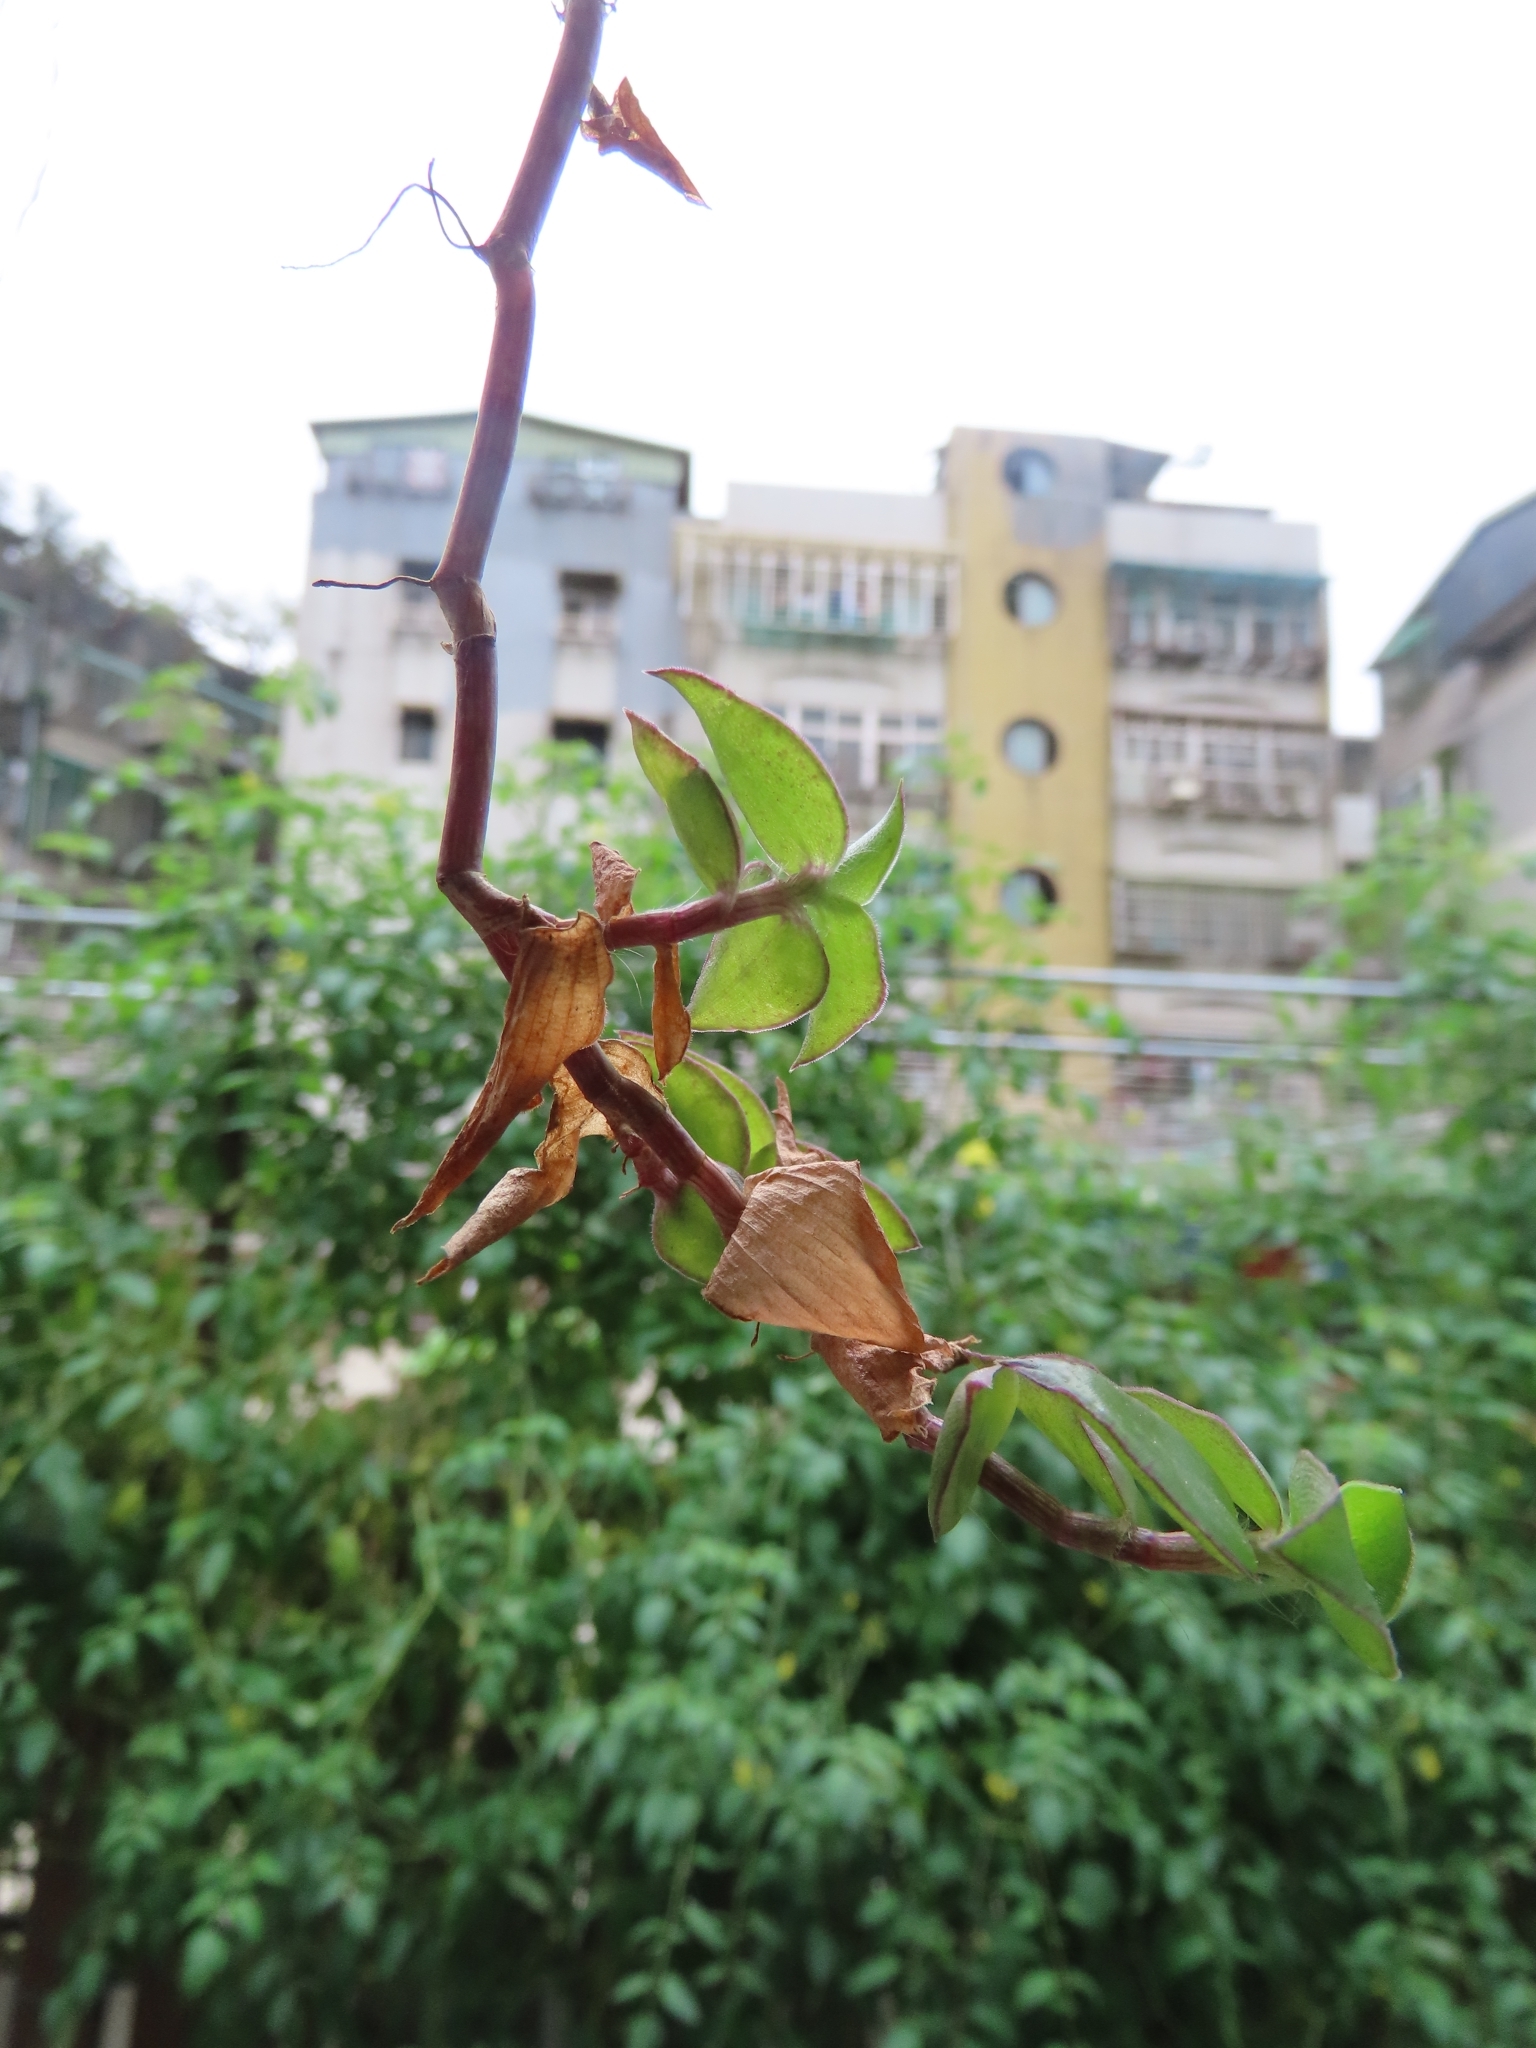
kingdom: Plantae
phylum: Tracheophyta
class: Liliopsida
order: Commelinales
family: Commelinaceae
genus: Callisia
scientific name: Callisia repens
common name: Creeping inchplant
